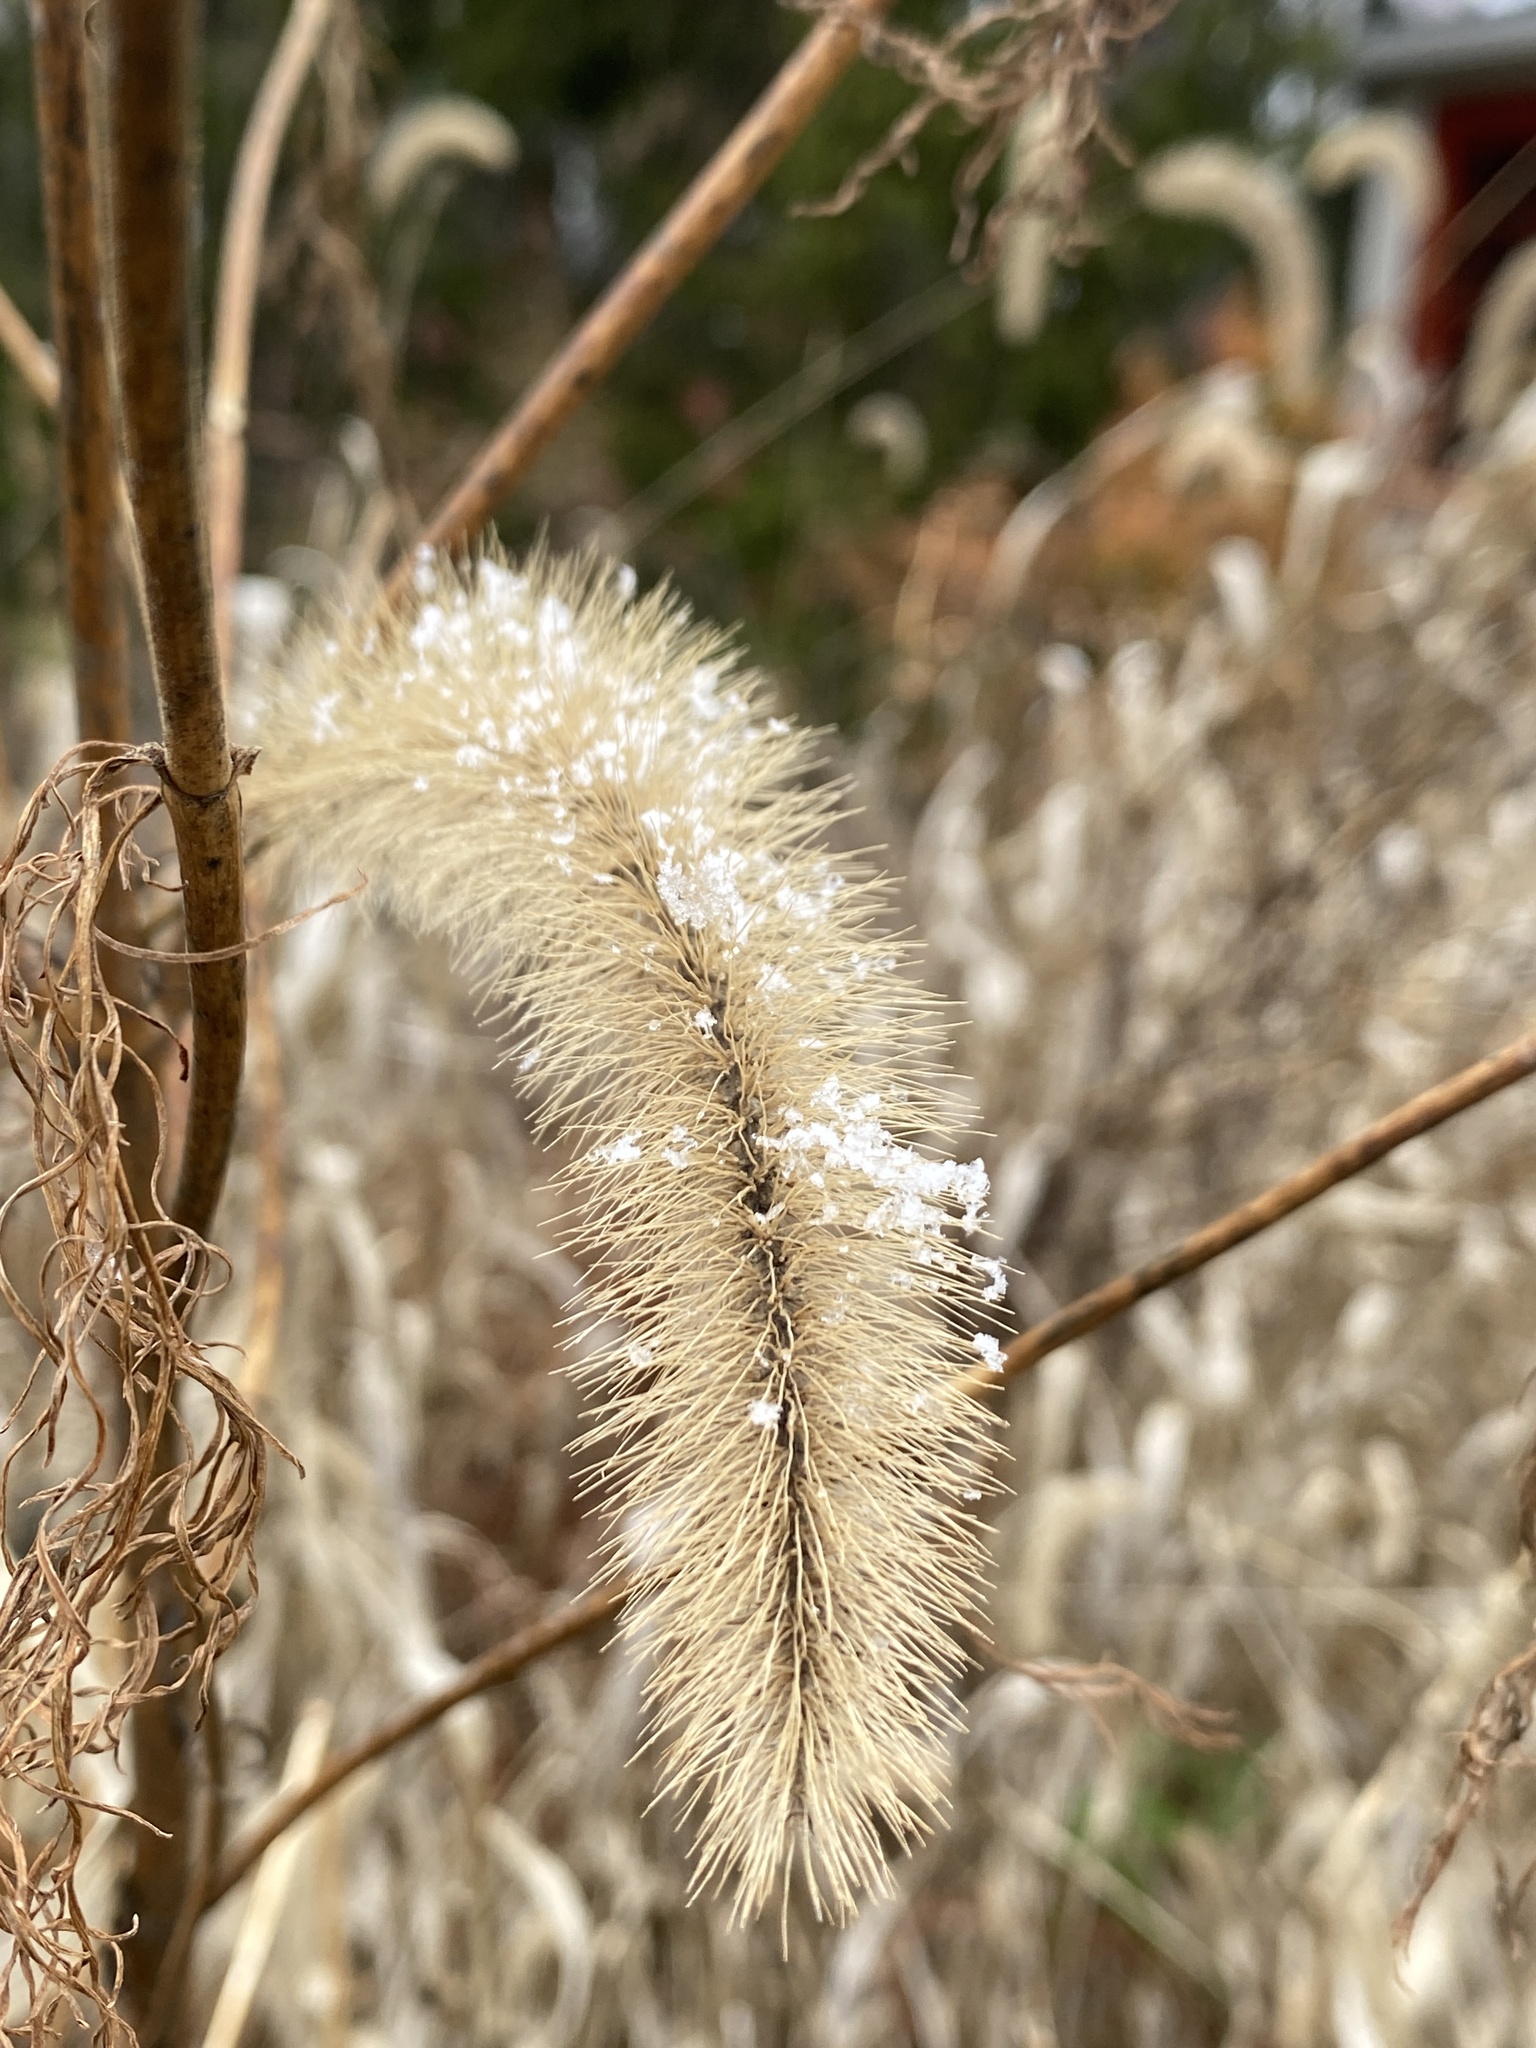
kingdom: Plantae
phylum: Tracheophyta
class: Liliopsida
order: Poales
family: Poaceae
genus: Setaria
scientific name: Setaria faberi
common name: Nodding bristle-grass
